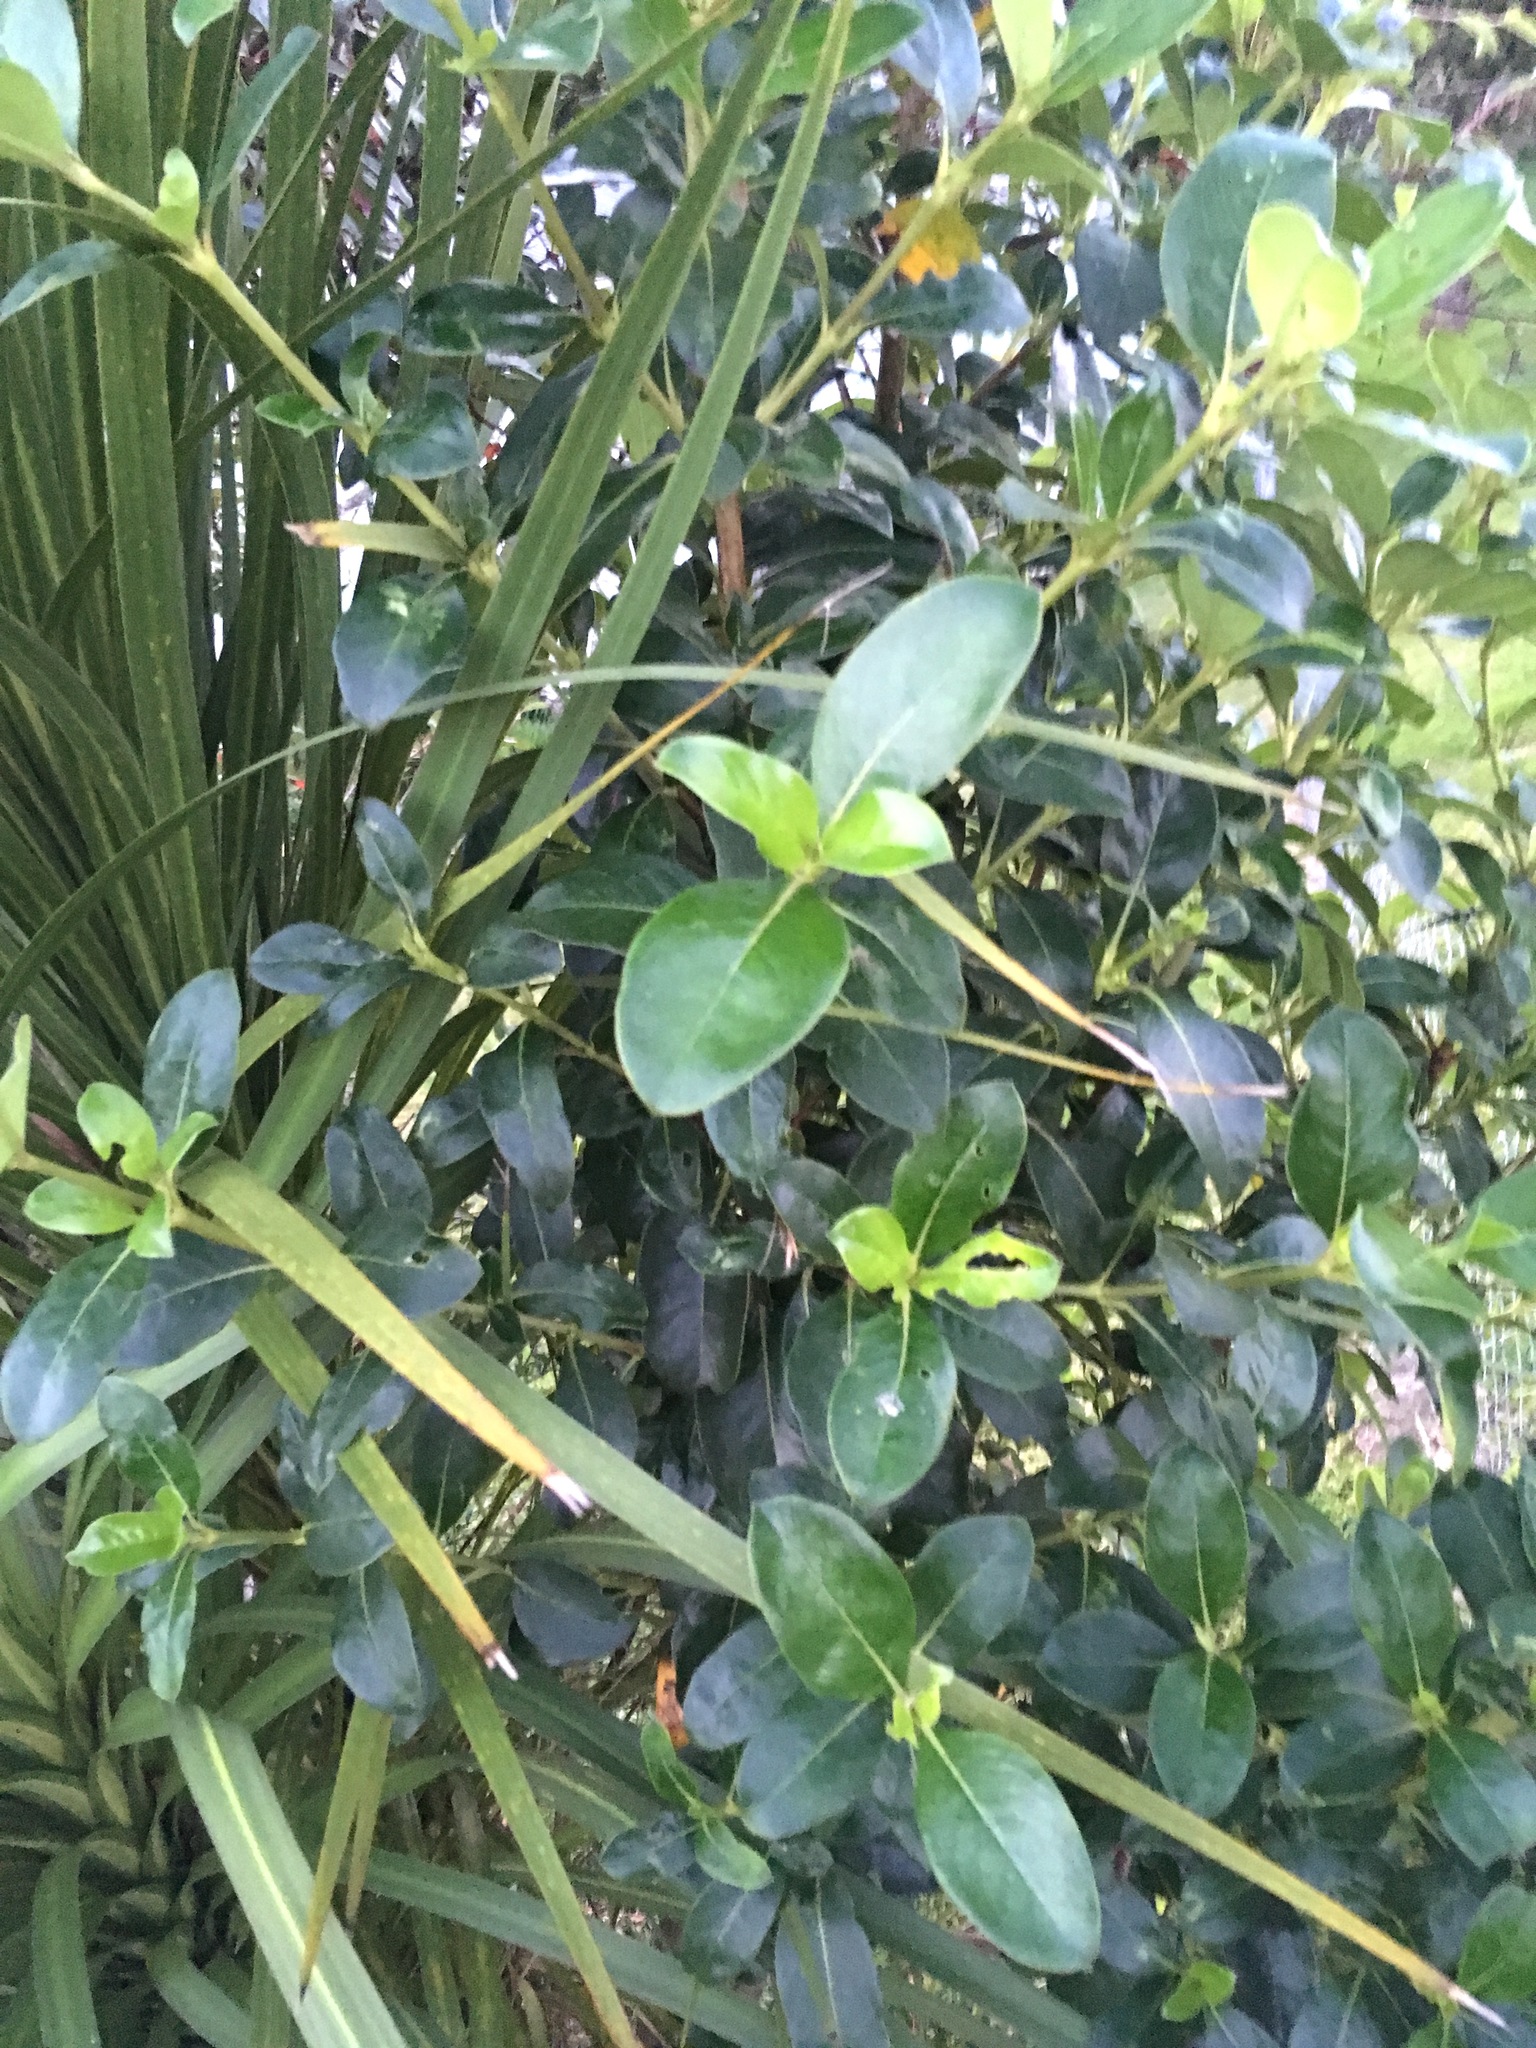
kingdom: Plantae
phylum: Tracheophyta
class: Magnoliopsida
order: Gentianales
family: Rubiaceae
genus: Coprosma
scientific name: Coprosma robusta
